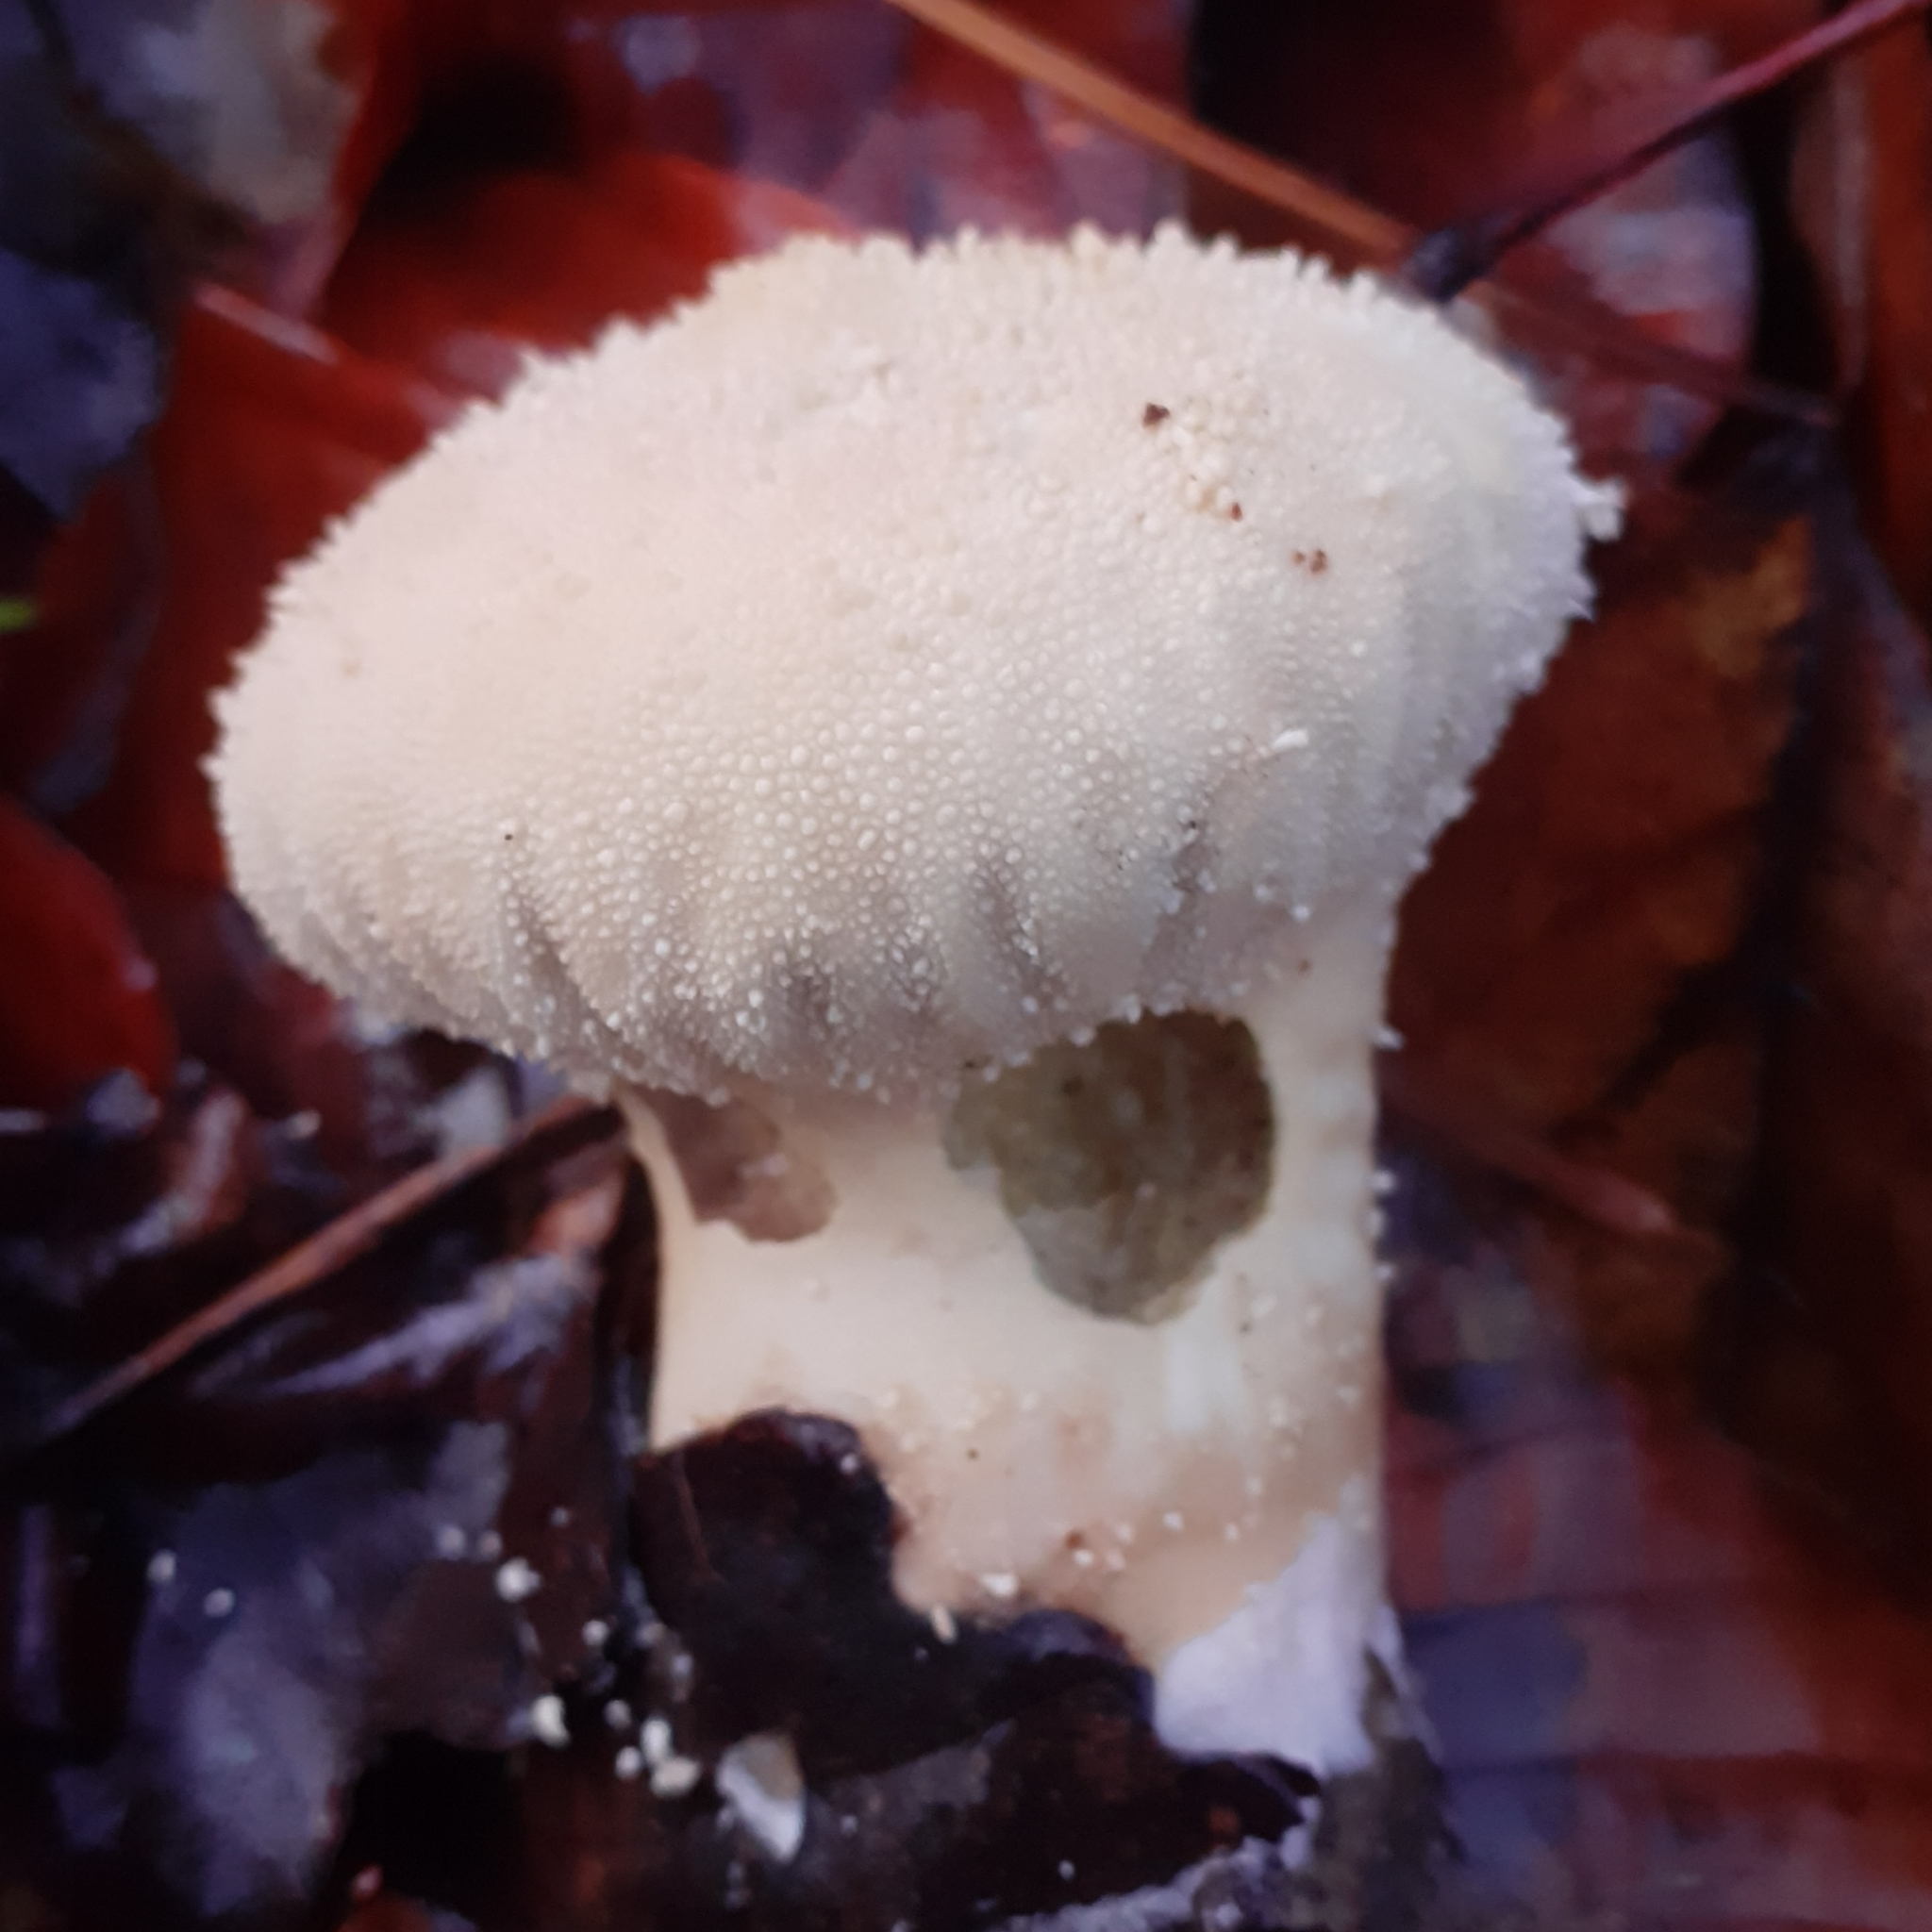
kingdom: Fungi
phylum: Basidiomycota
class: Agaricomycetes
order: Agaricales
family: Lycoperdaceae
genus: Lycoperdon
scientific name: Lycoperdon perlatum
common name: Common puffball
